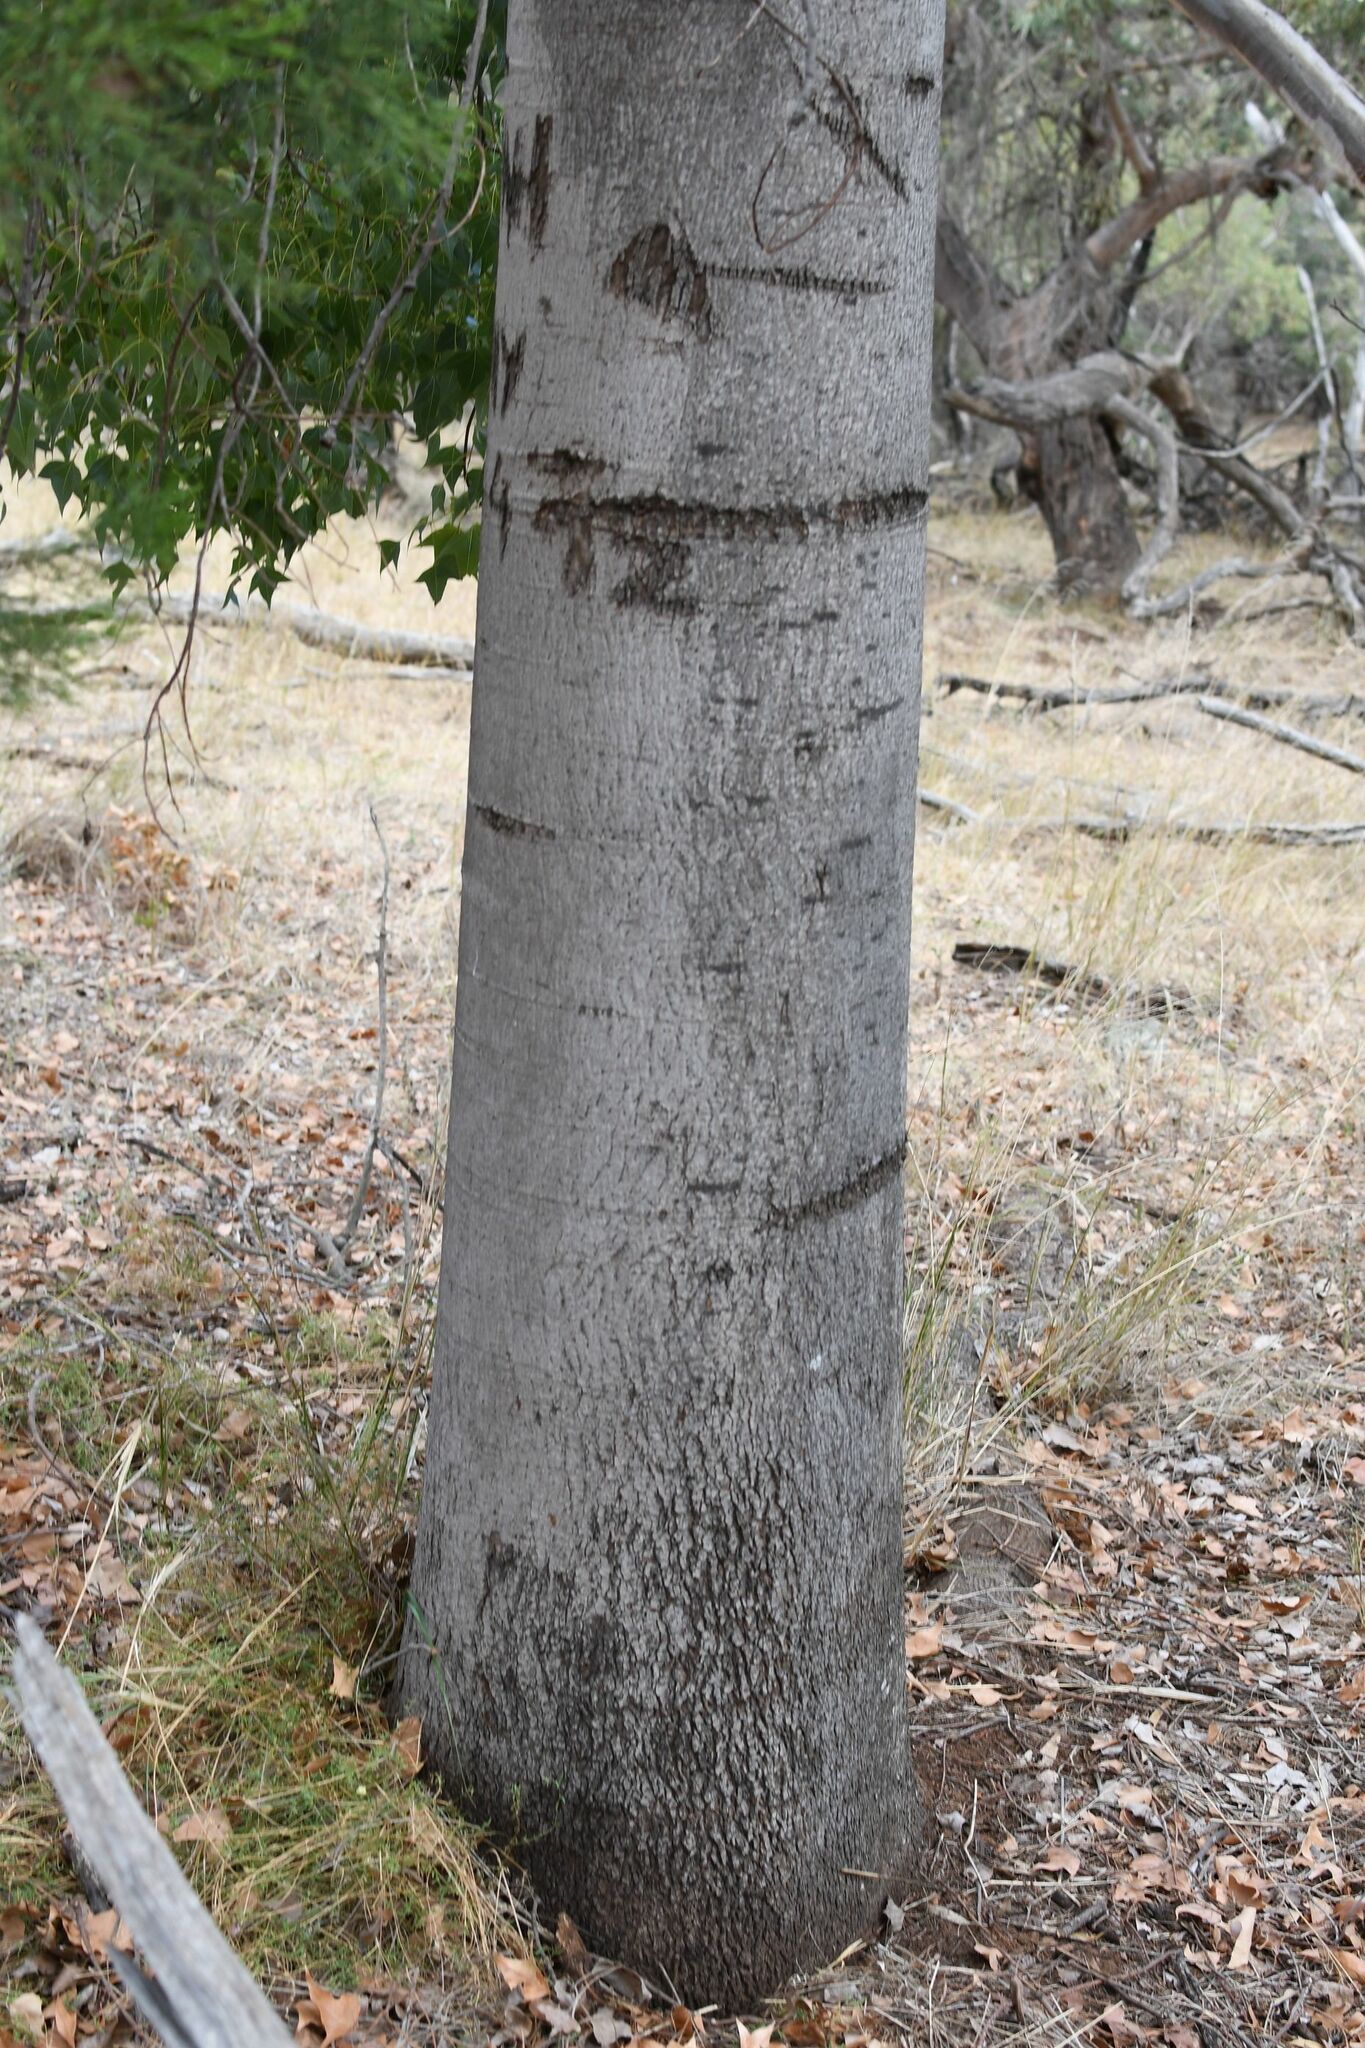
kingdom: Plantae
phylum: Tracheophyta
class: Magnoliopsida
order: Malvales
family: Malvaceae
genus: Brachychiton
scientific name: Brachychiton populneus
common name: Kurrajong
